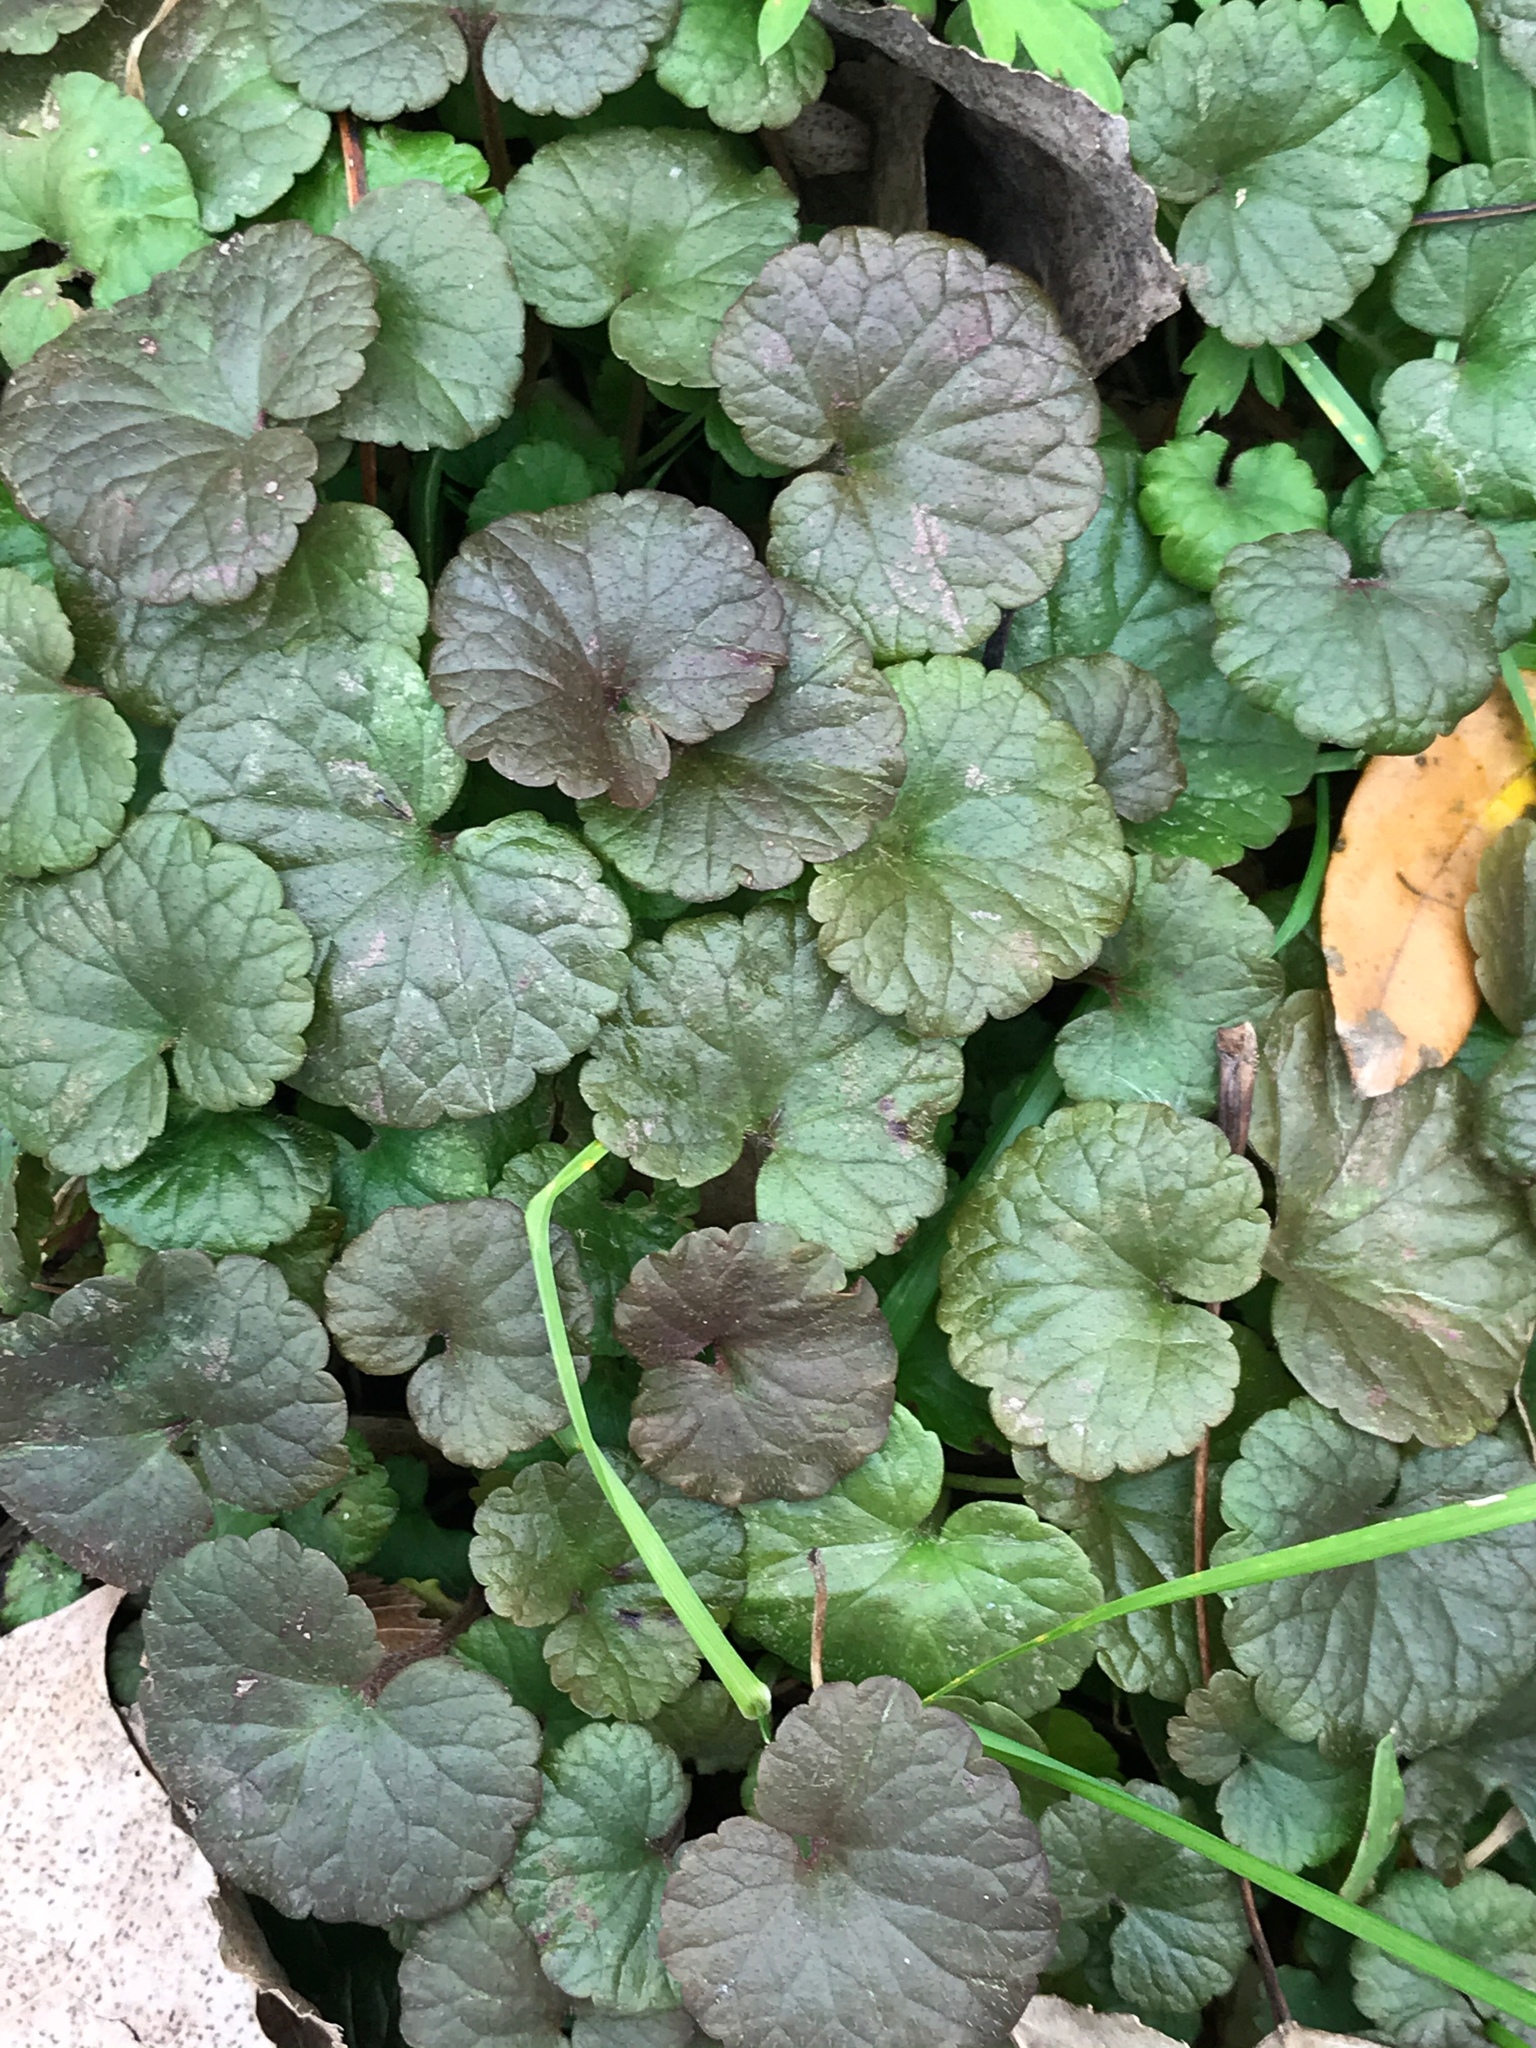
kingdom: Plantae
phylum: Tracheophyta
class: Magnoliopsida
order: Lamiales
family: Lamiaceae
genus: Glechoma
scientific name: Glechoma hederacea
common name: Ground ivy
